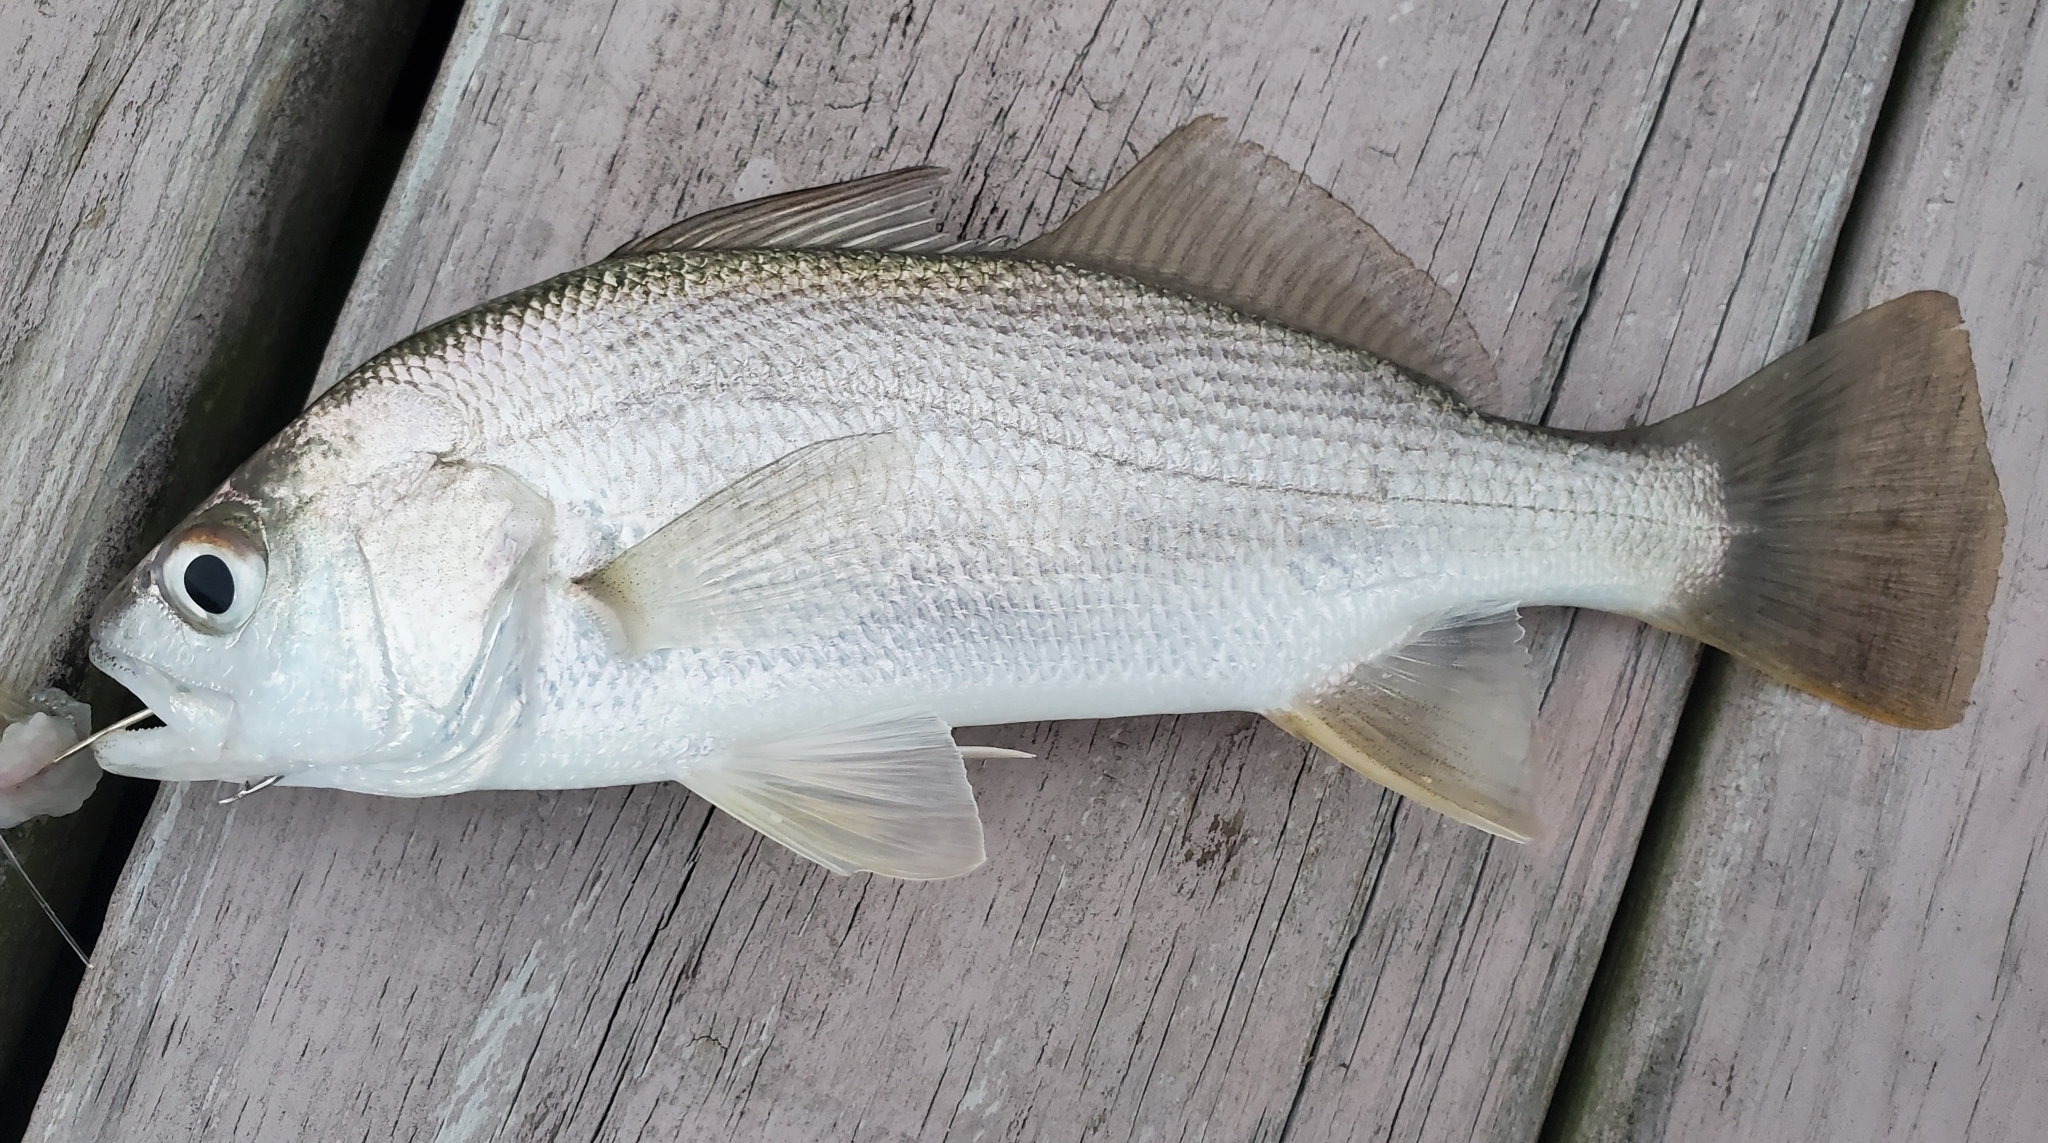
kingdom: Animalia
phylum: Chordata
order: Perciformes
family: Sciaenidae
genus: Bairdiella
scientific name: Bairdiella chrysoura
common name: Silver perch
